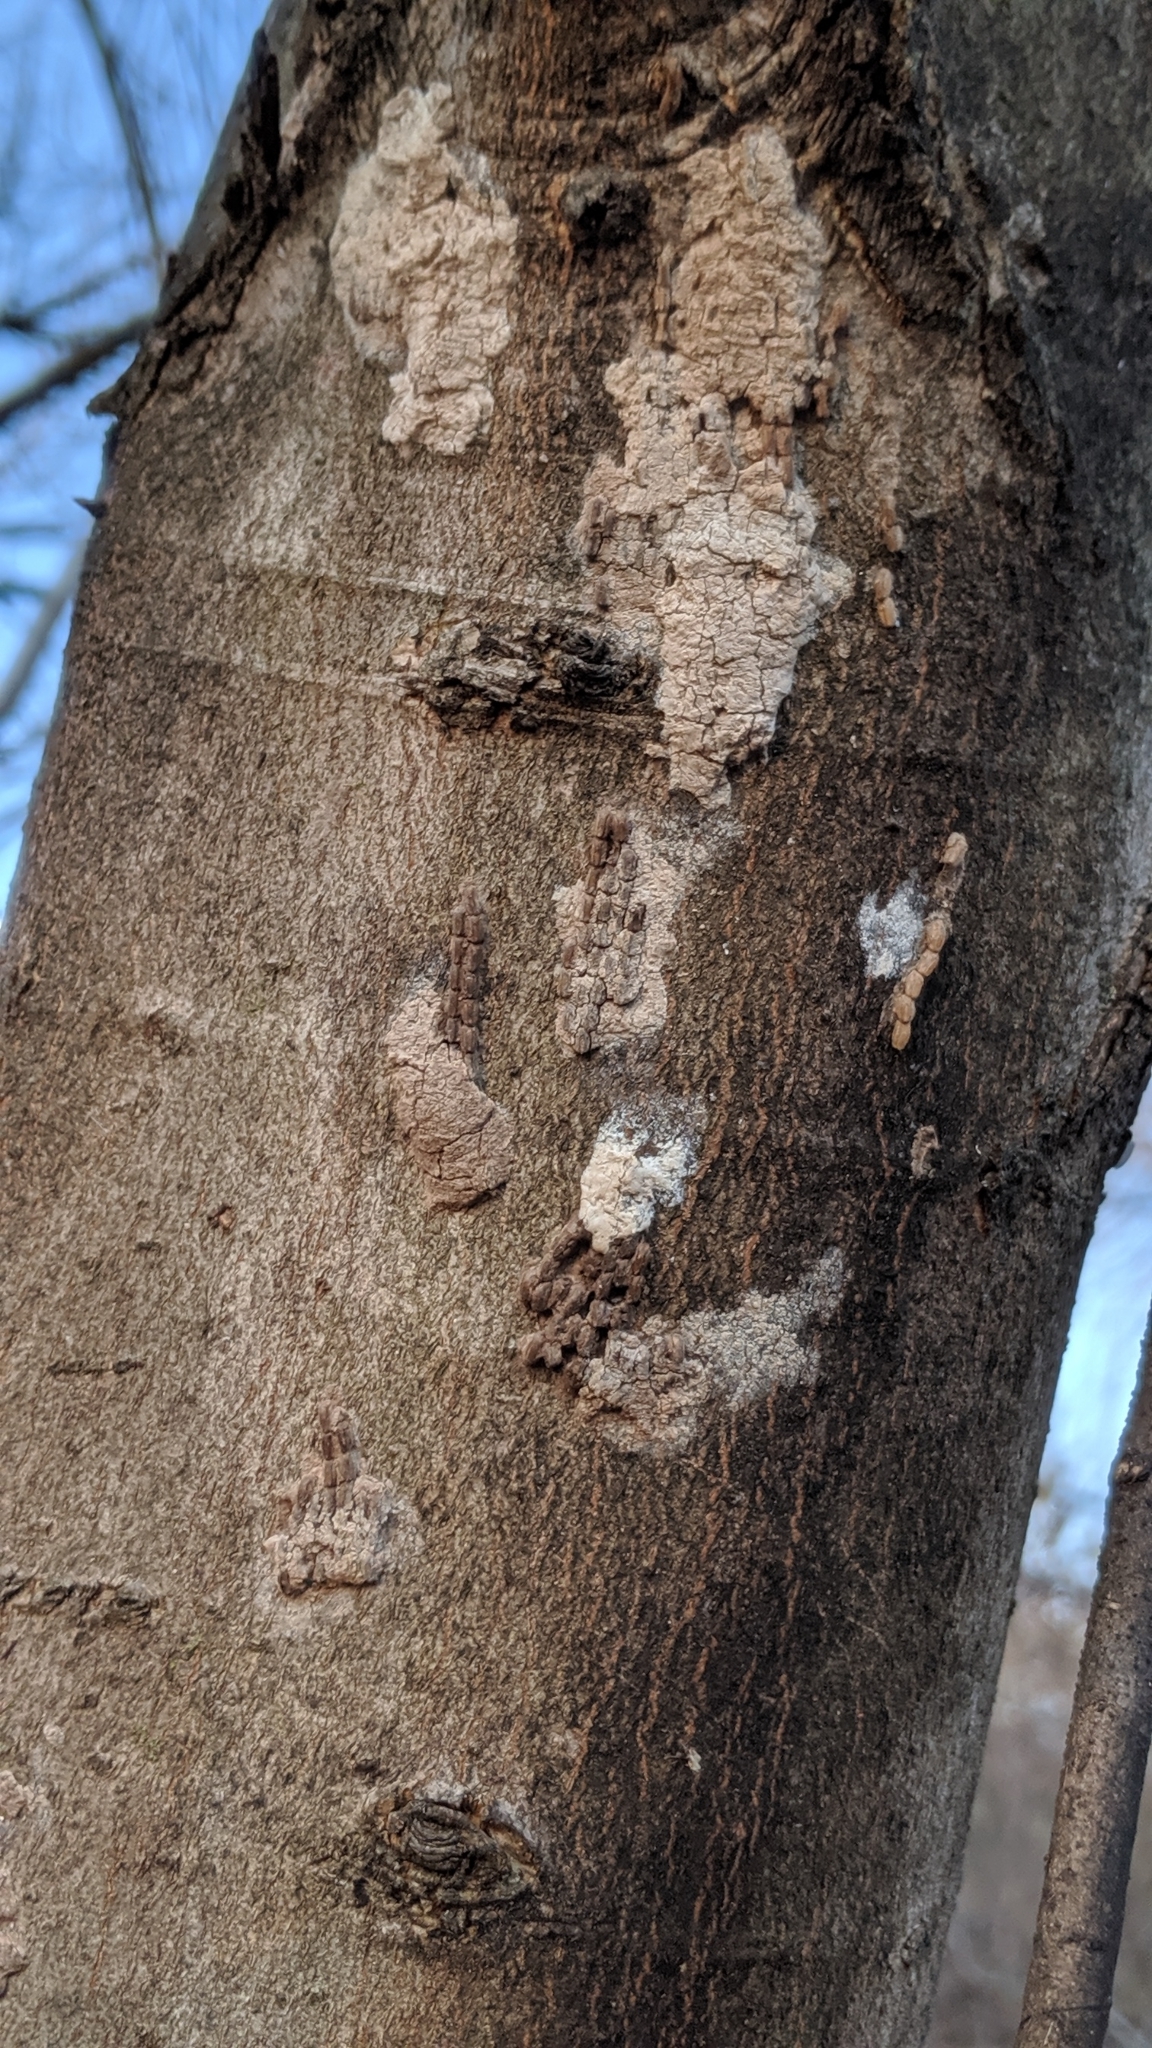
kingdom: Animalia
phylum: Arthropoda
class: Insecta
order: Hemiptera
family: Fulgoridae
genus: Lycorma
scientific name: Lycorma delicatula
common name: Spotted lanternfly
